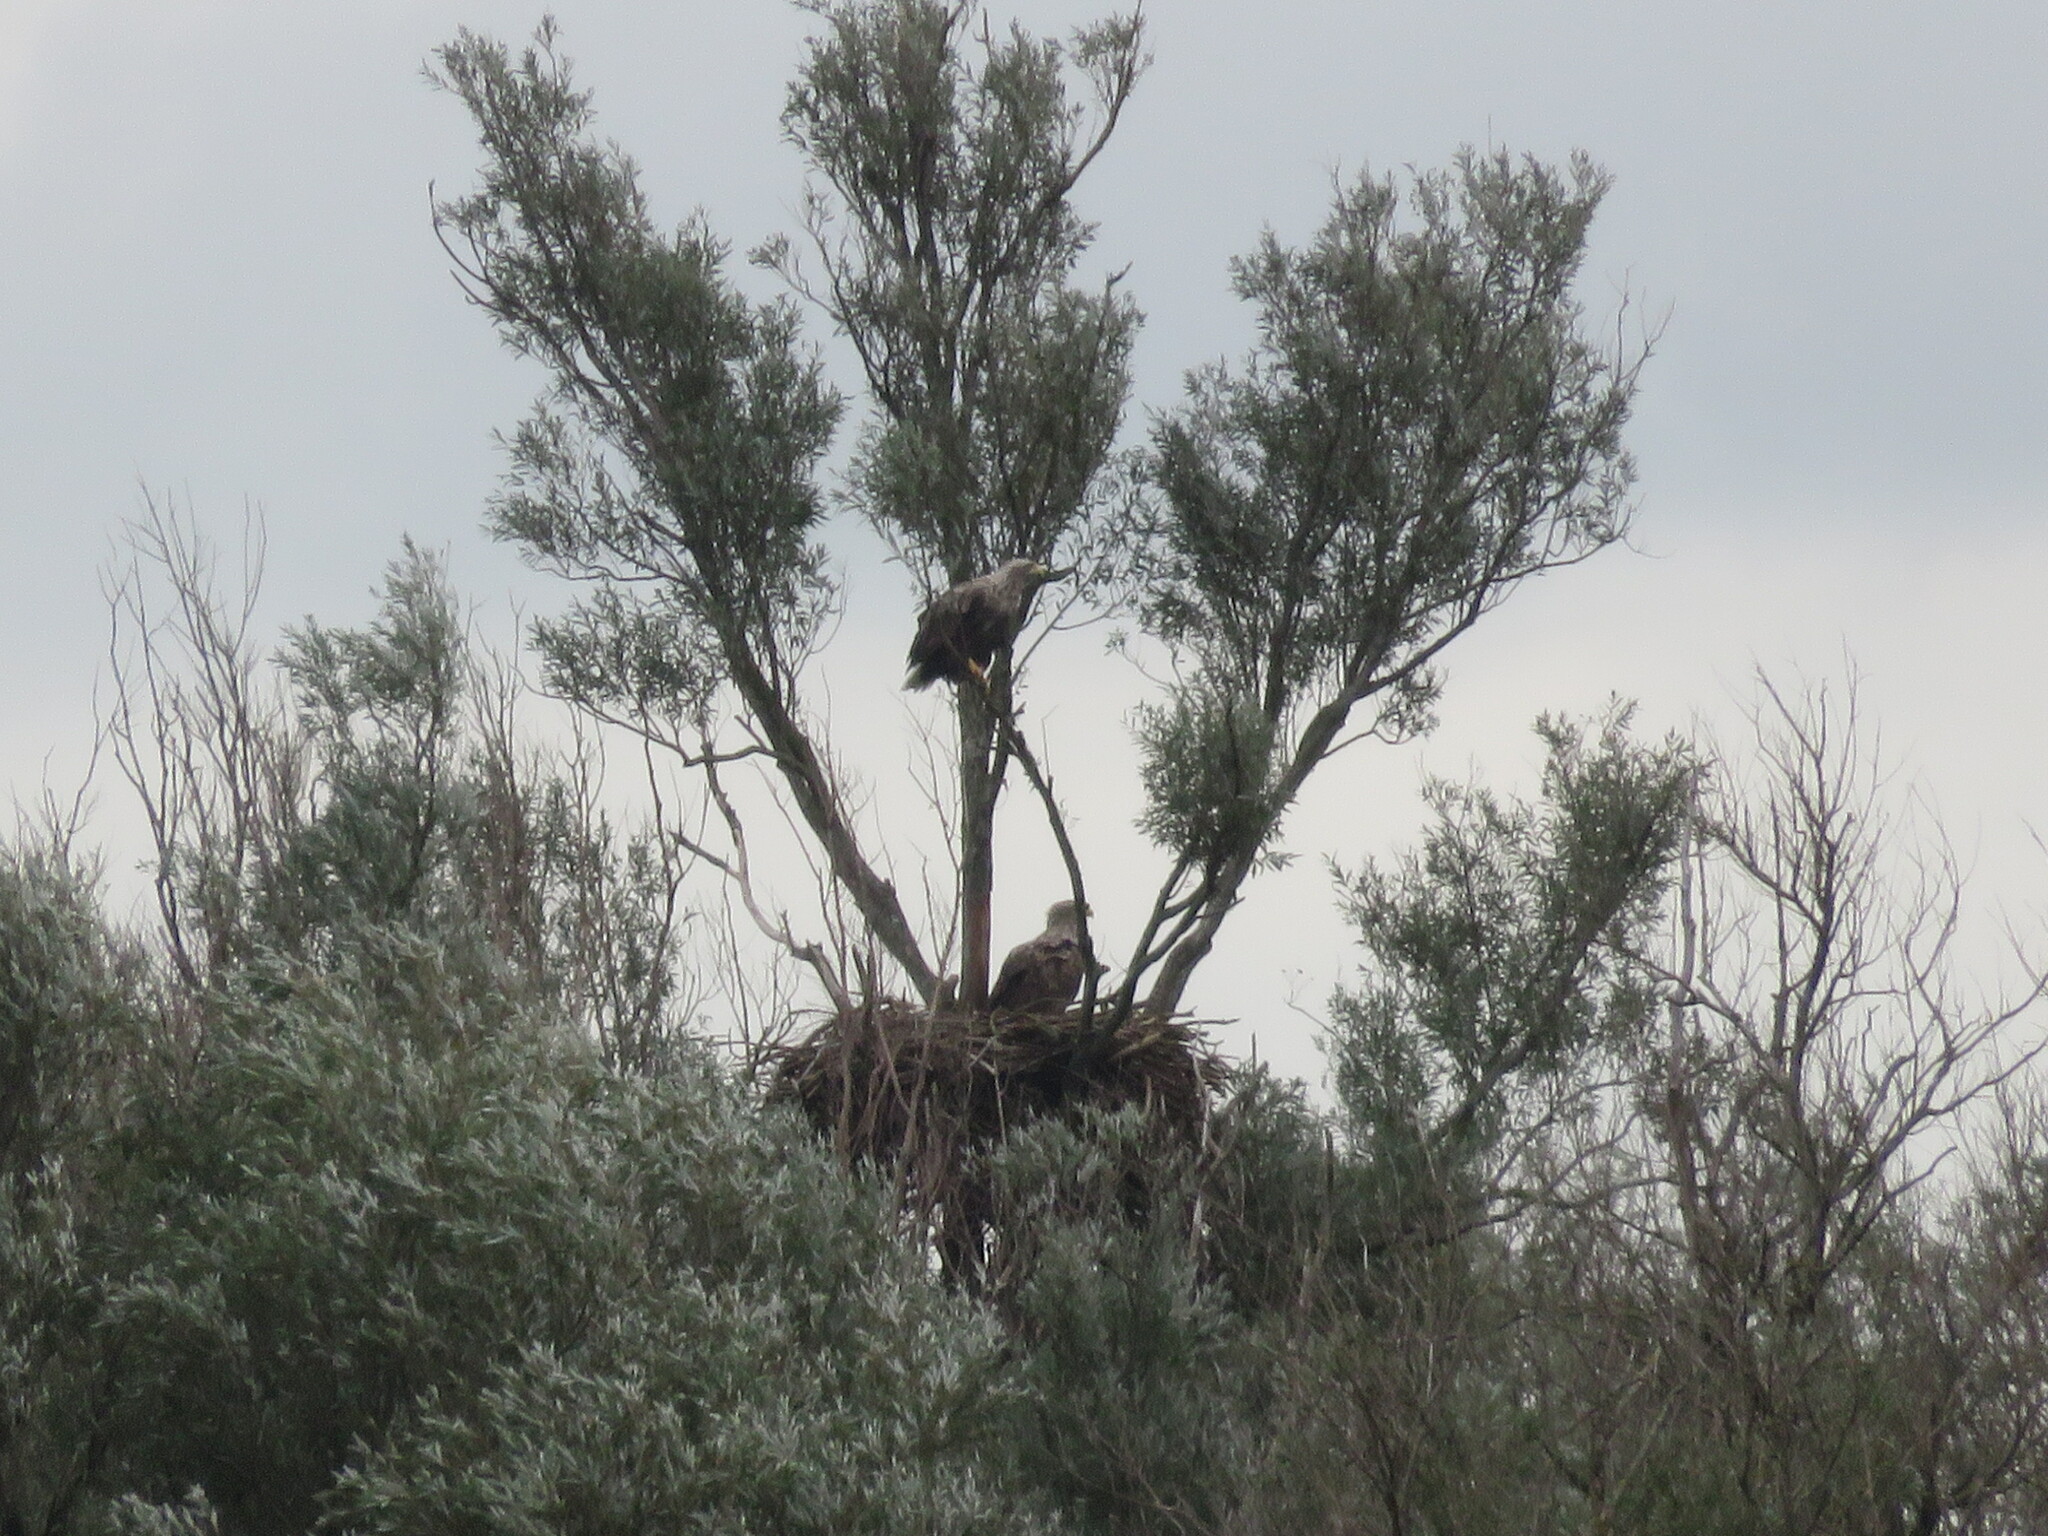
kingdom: Animalia
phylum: Chordata
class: Aves
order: Accipitriformes
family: Accipitridae
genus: Haliaeetus
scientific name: Haliaeetus albicilla
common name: White-tailed eagle
